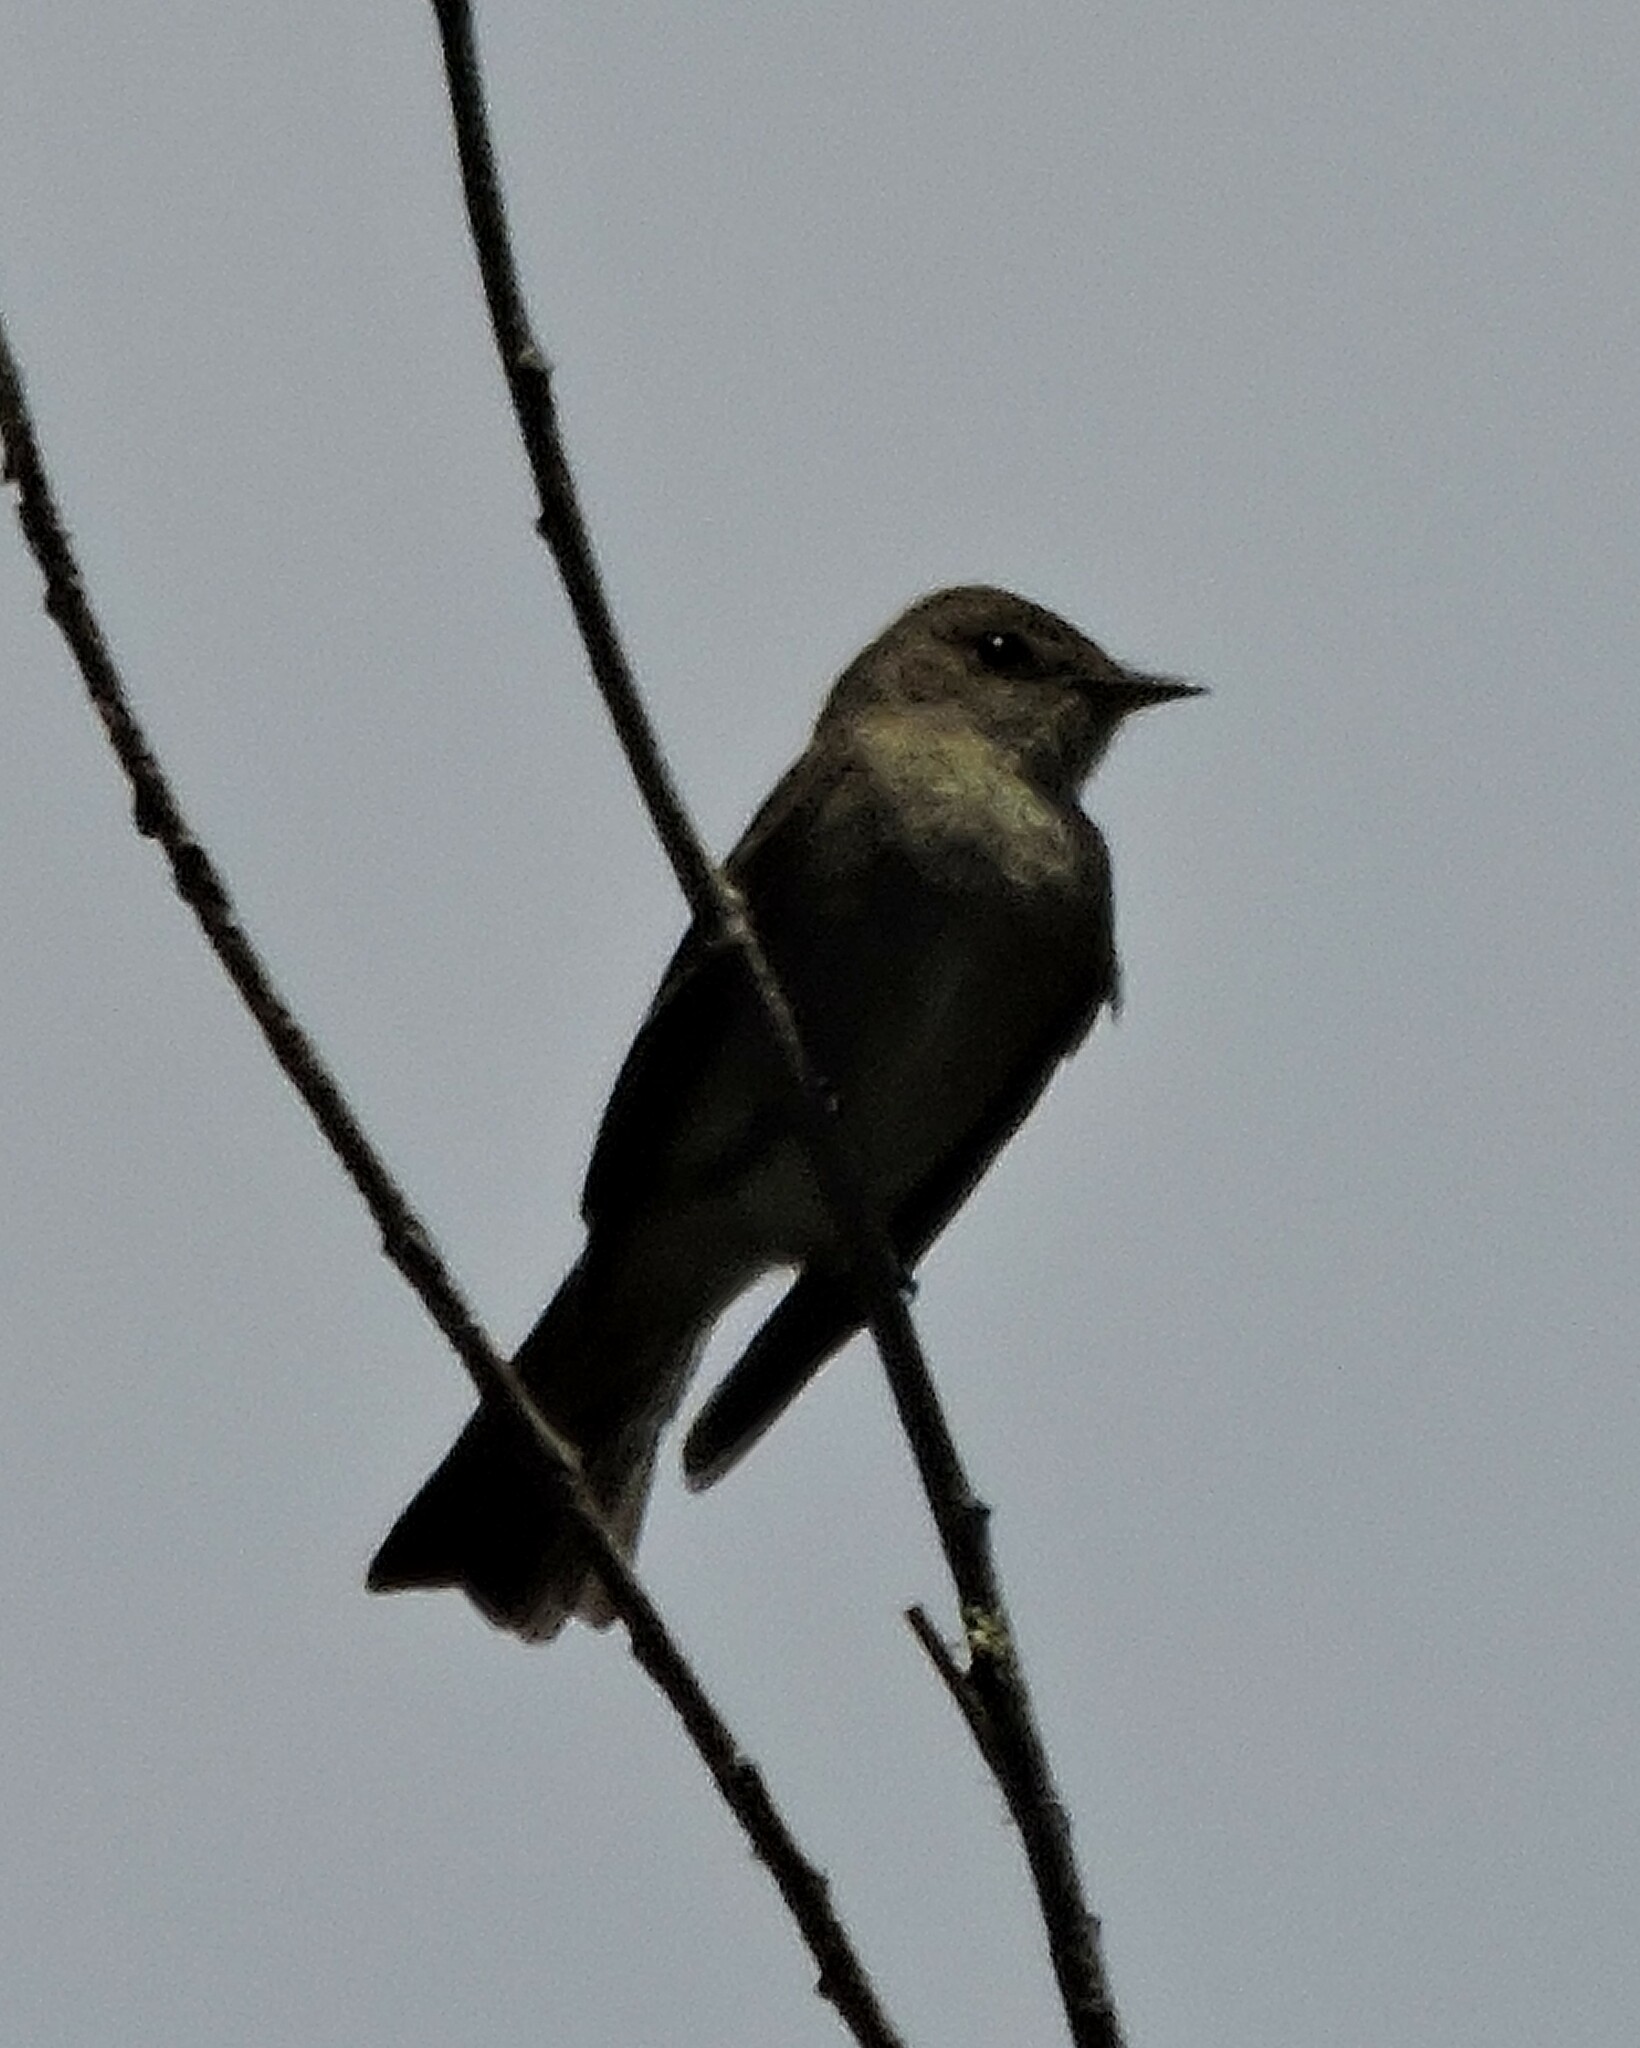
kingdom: Animalia
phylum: Chordata
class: Aves
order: Passeriformes
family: Tyrannidae
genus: Contopus
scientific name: Contopus sordidulus
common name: Western wood-pewee
